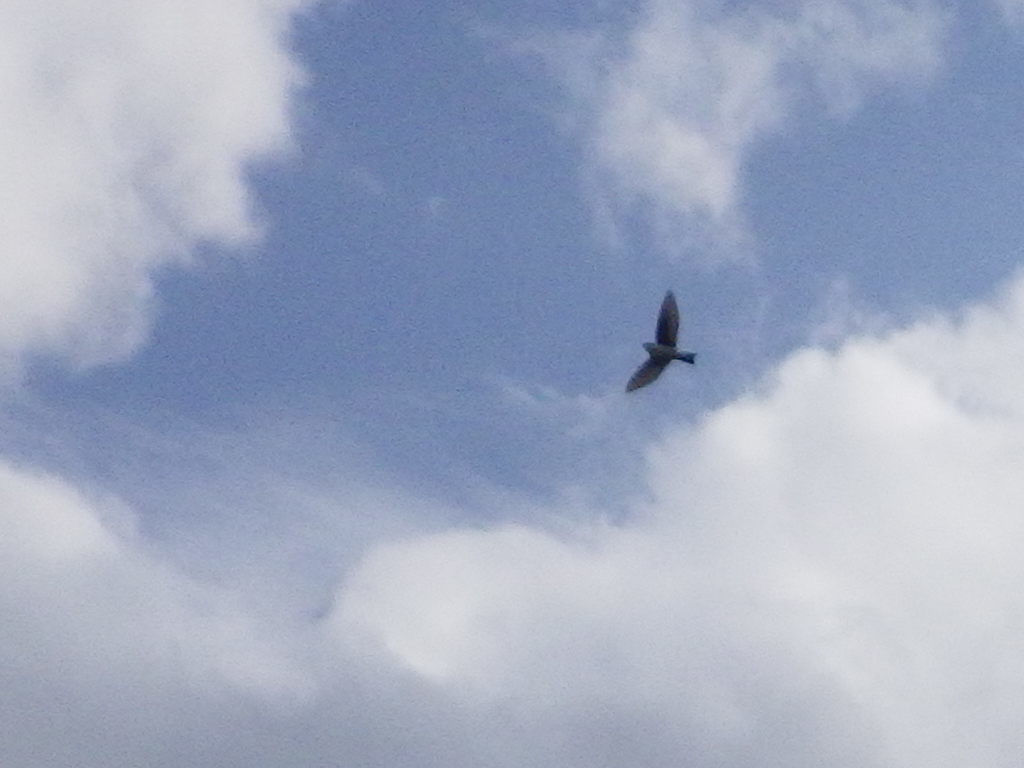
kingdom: Animalia
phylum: Chordata
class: Aves
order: Passeriformes
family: Hirundinidae
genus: Tachycineta
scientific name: Tachycineta bicolor
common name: Tree swallow
